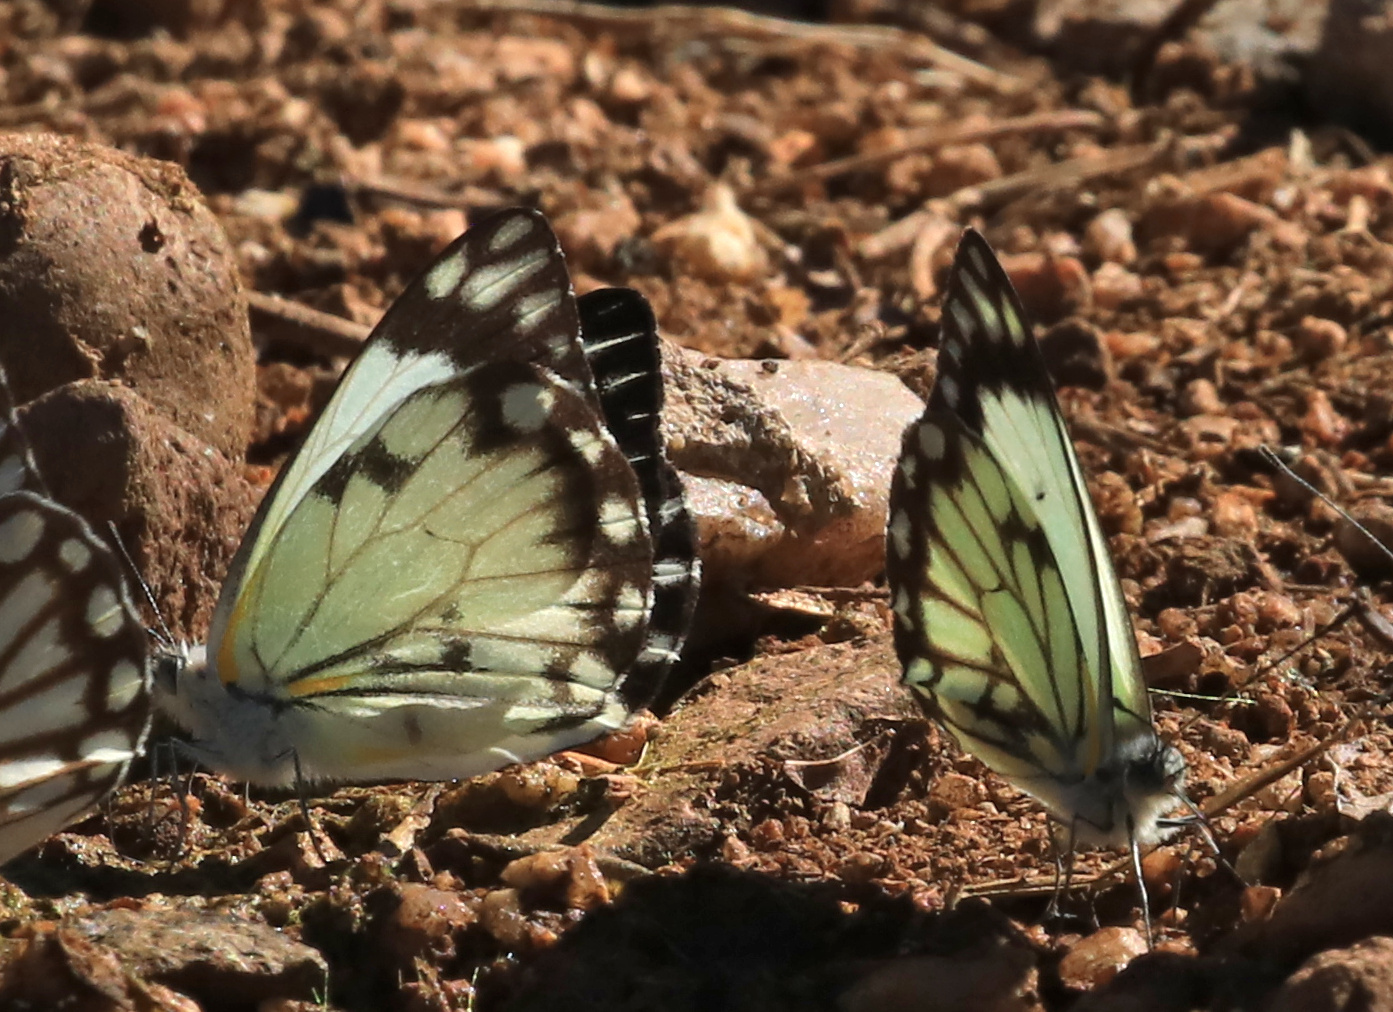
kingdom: Animalia
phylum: Arthropoda
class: Insecta
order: Lepidoptera
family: Pieridae
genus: Belenois
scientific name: Belenois creona
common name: African caper white
